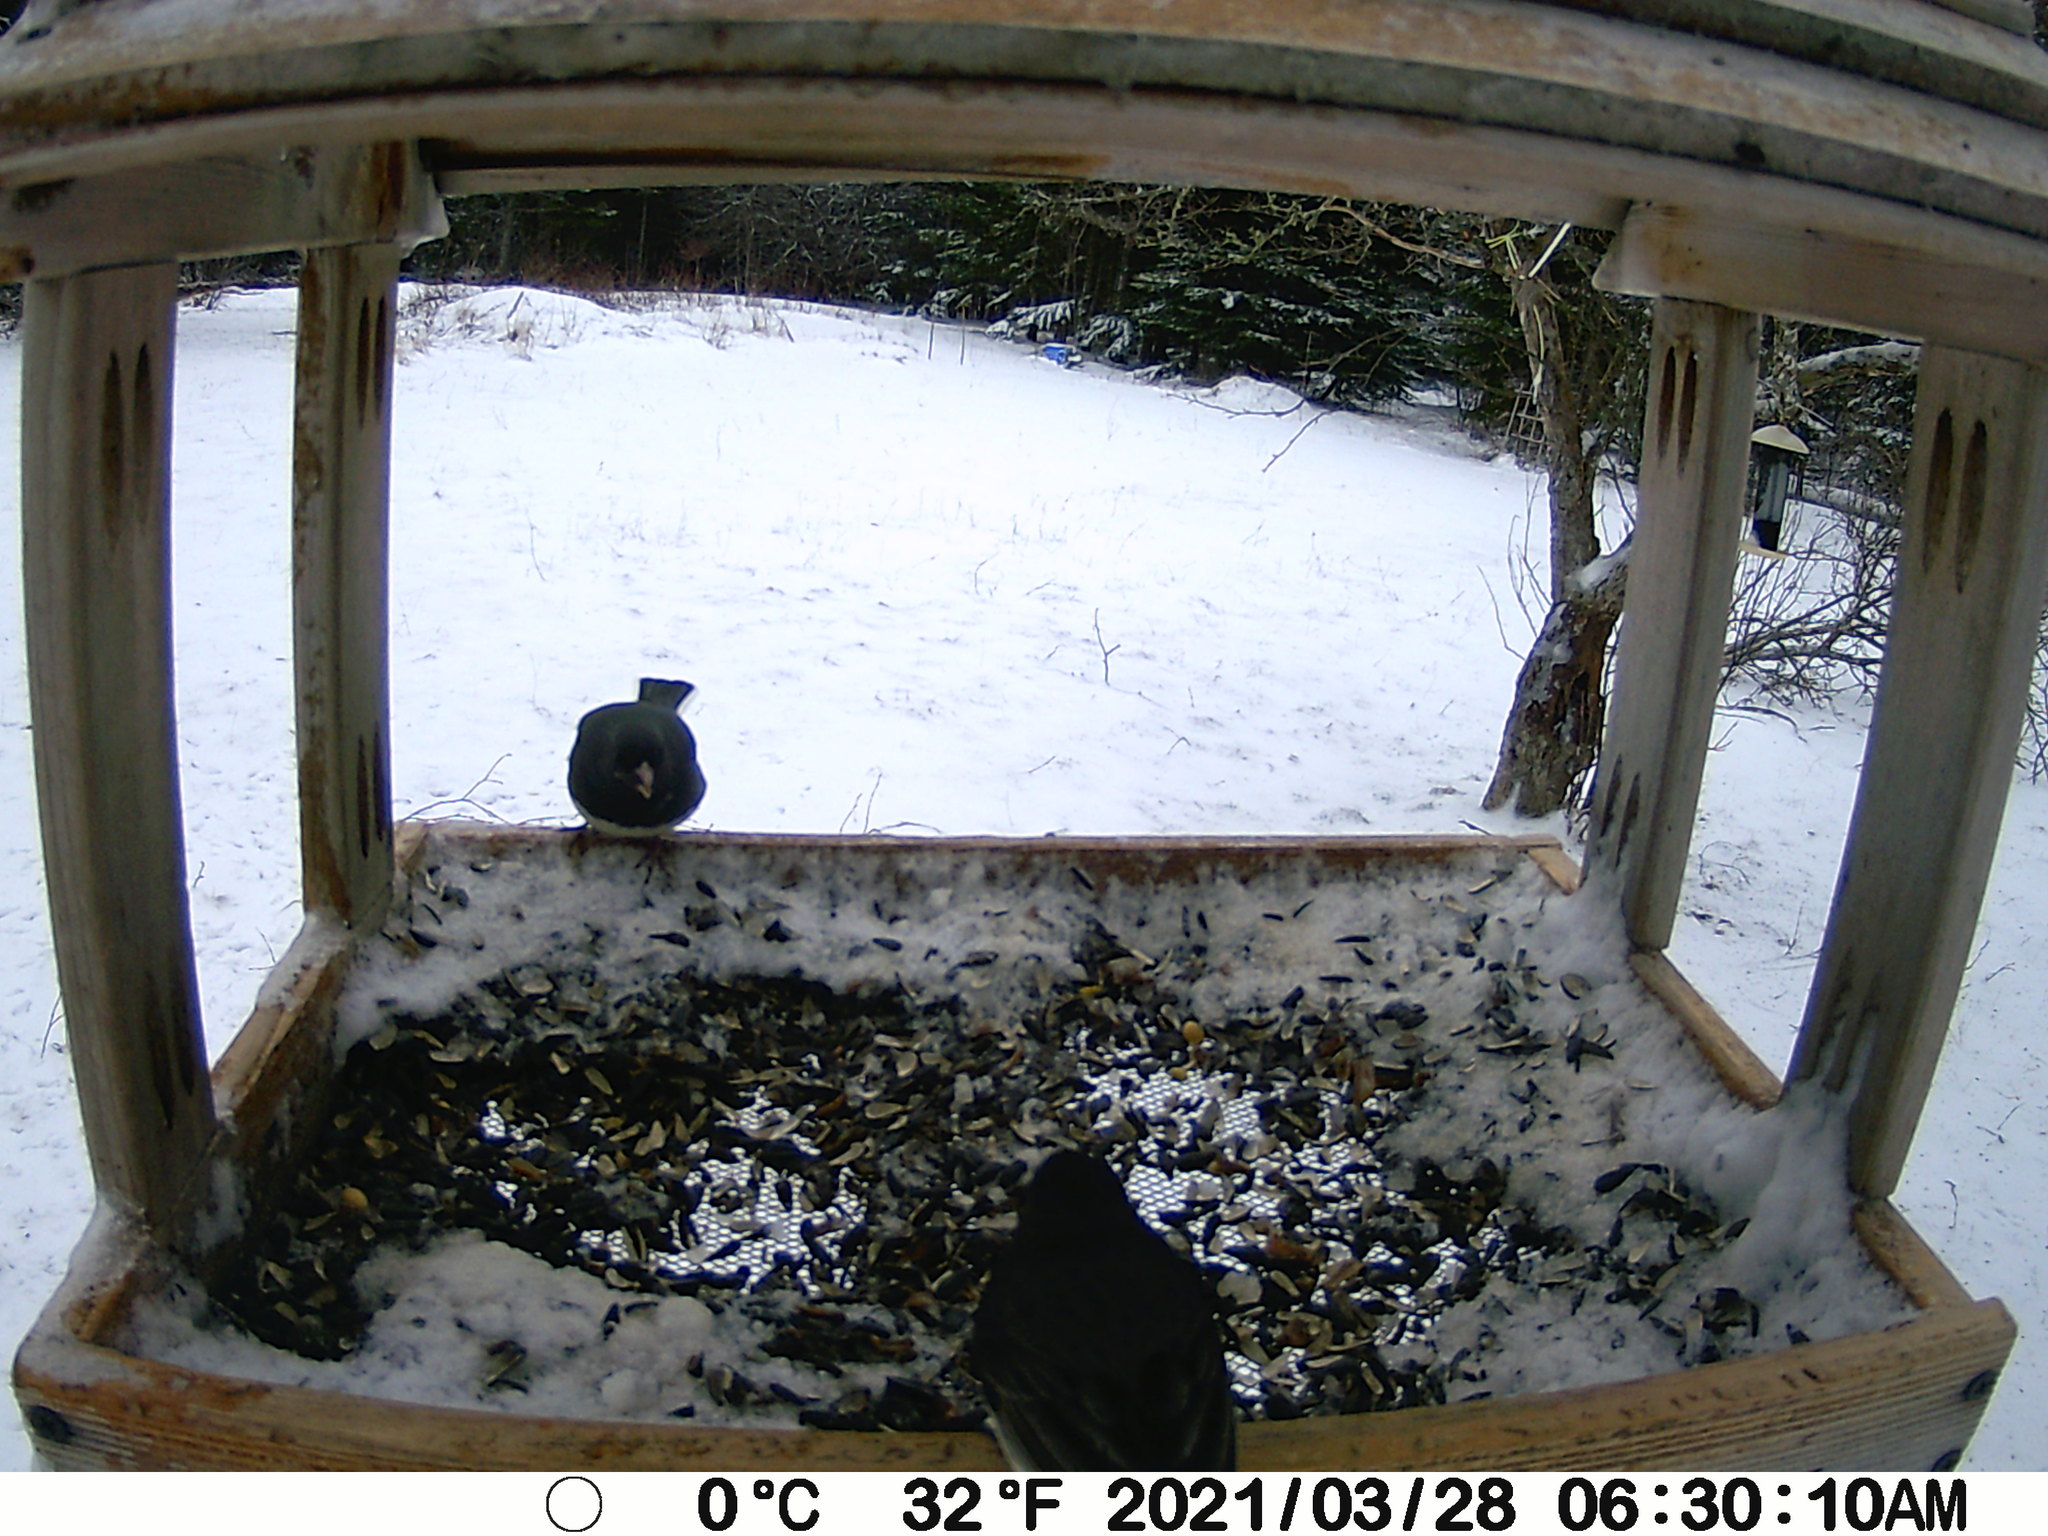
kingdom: Animalia
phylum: Chordata
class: Aves
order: Passeriformes
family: Passerellidae
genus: Junco
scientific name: Junco hyemalis
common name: Dark-eyed junco
